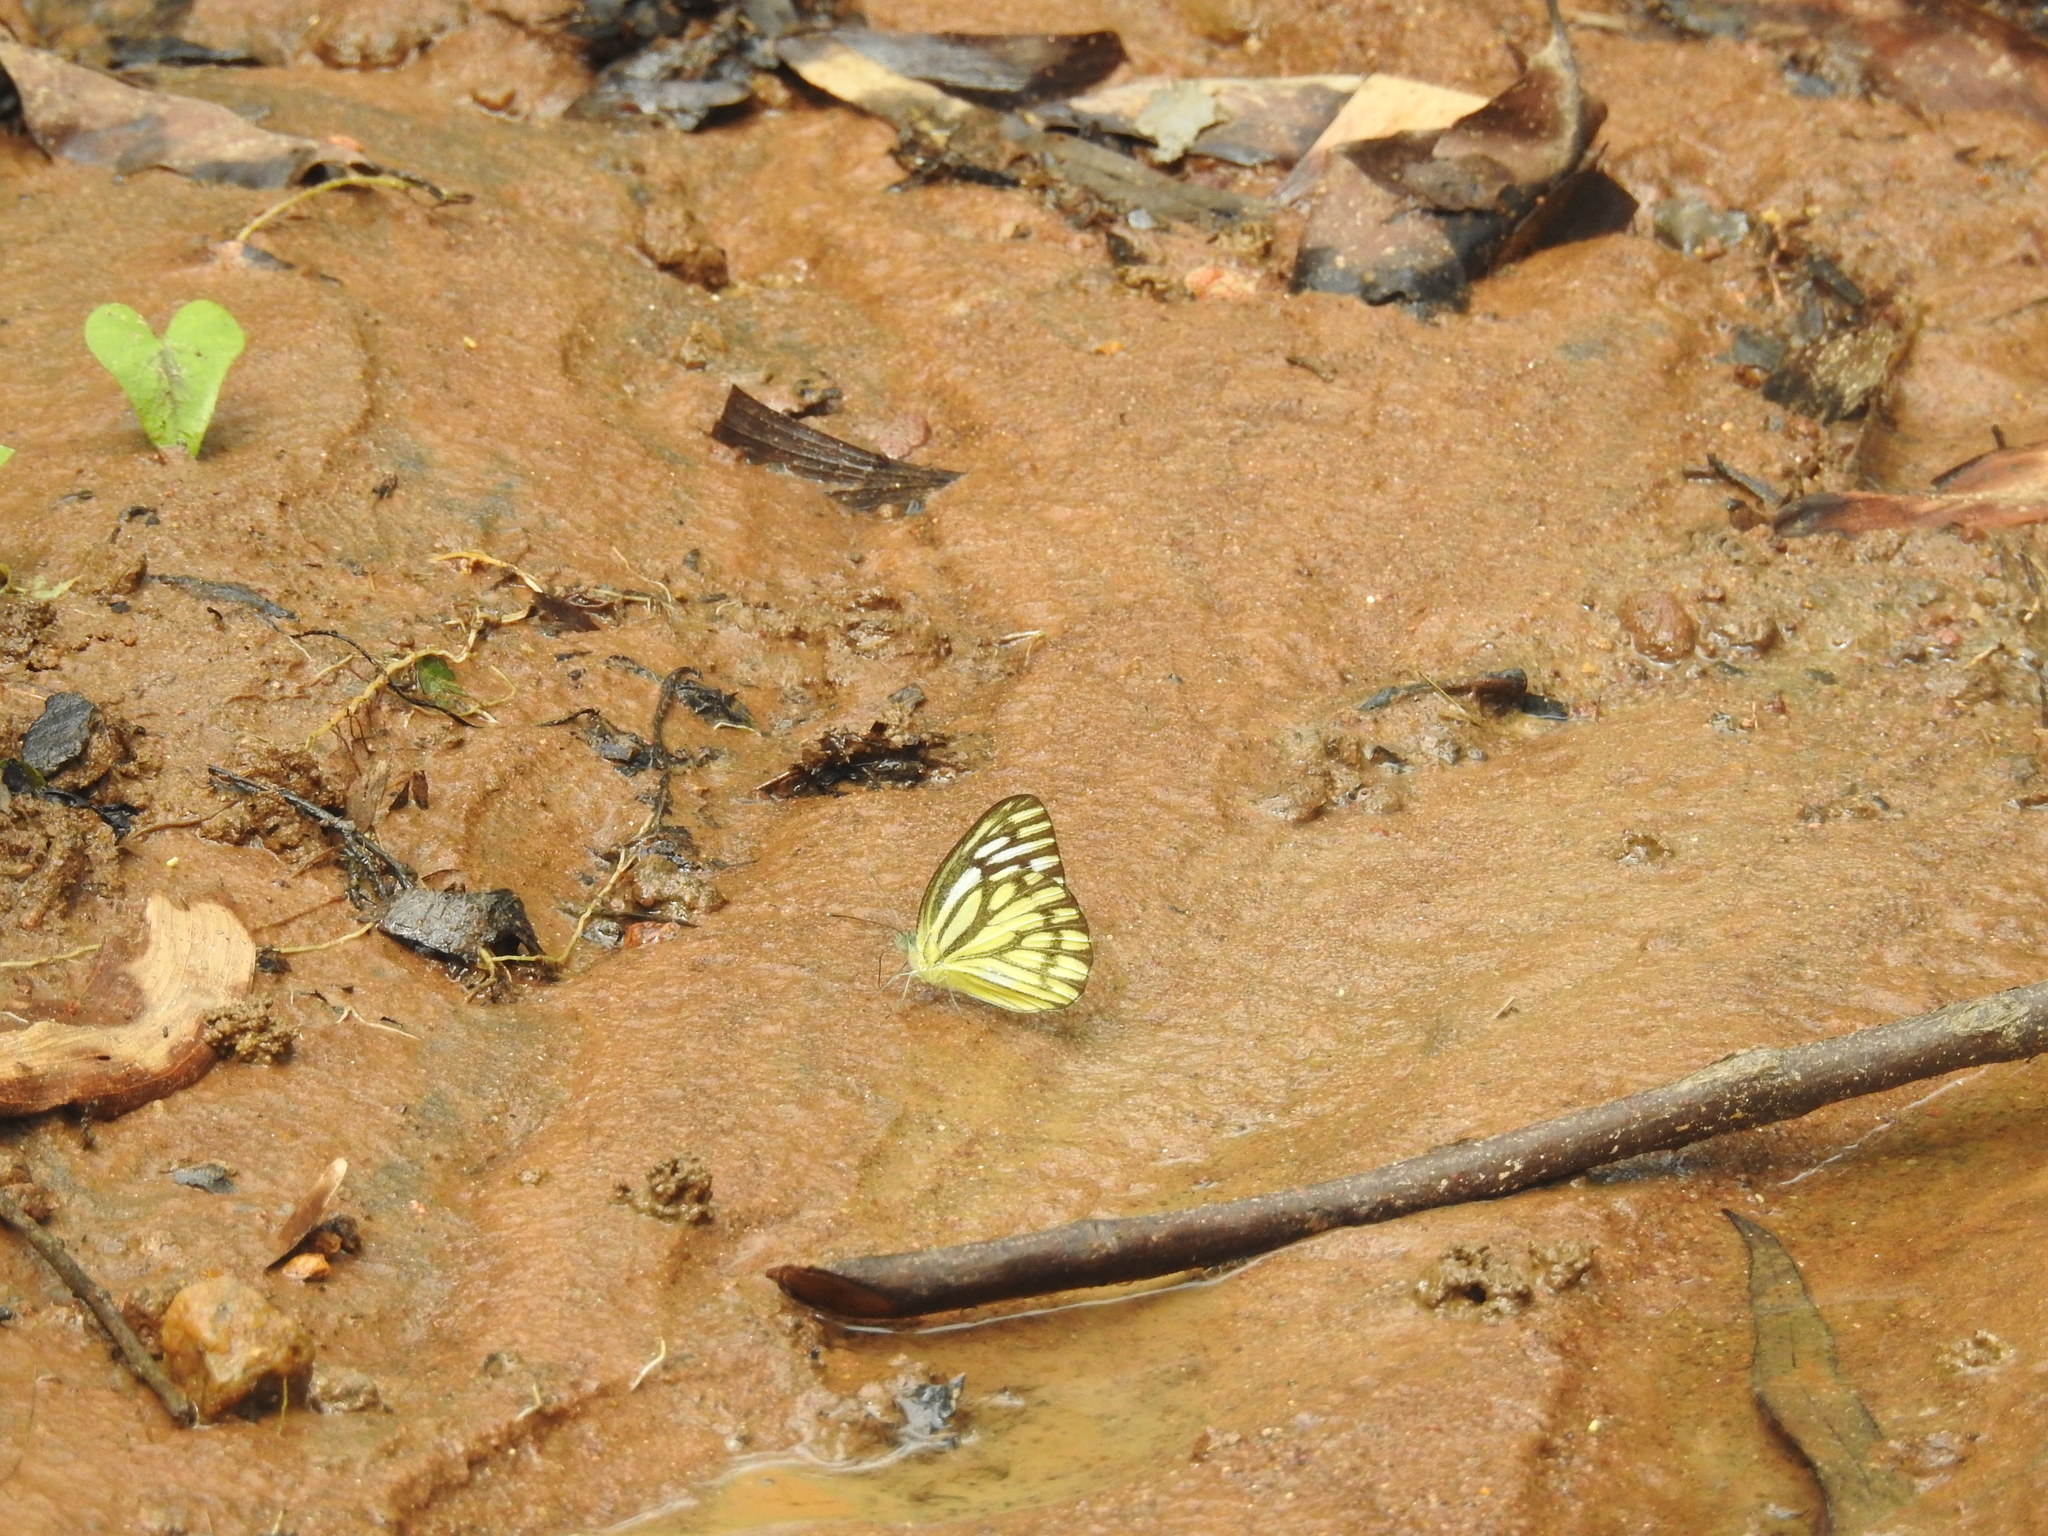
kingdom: Animalia
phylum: Arthropoda
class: Insecta
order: Lepidoptera
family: Pieridae
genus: Cepora
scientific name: Cepora nerissa
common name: Common gull
